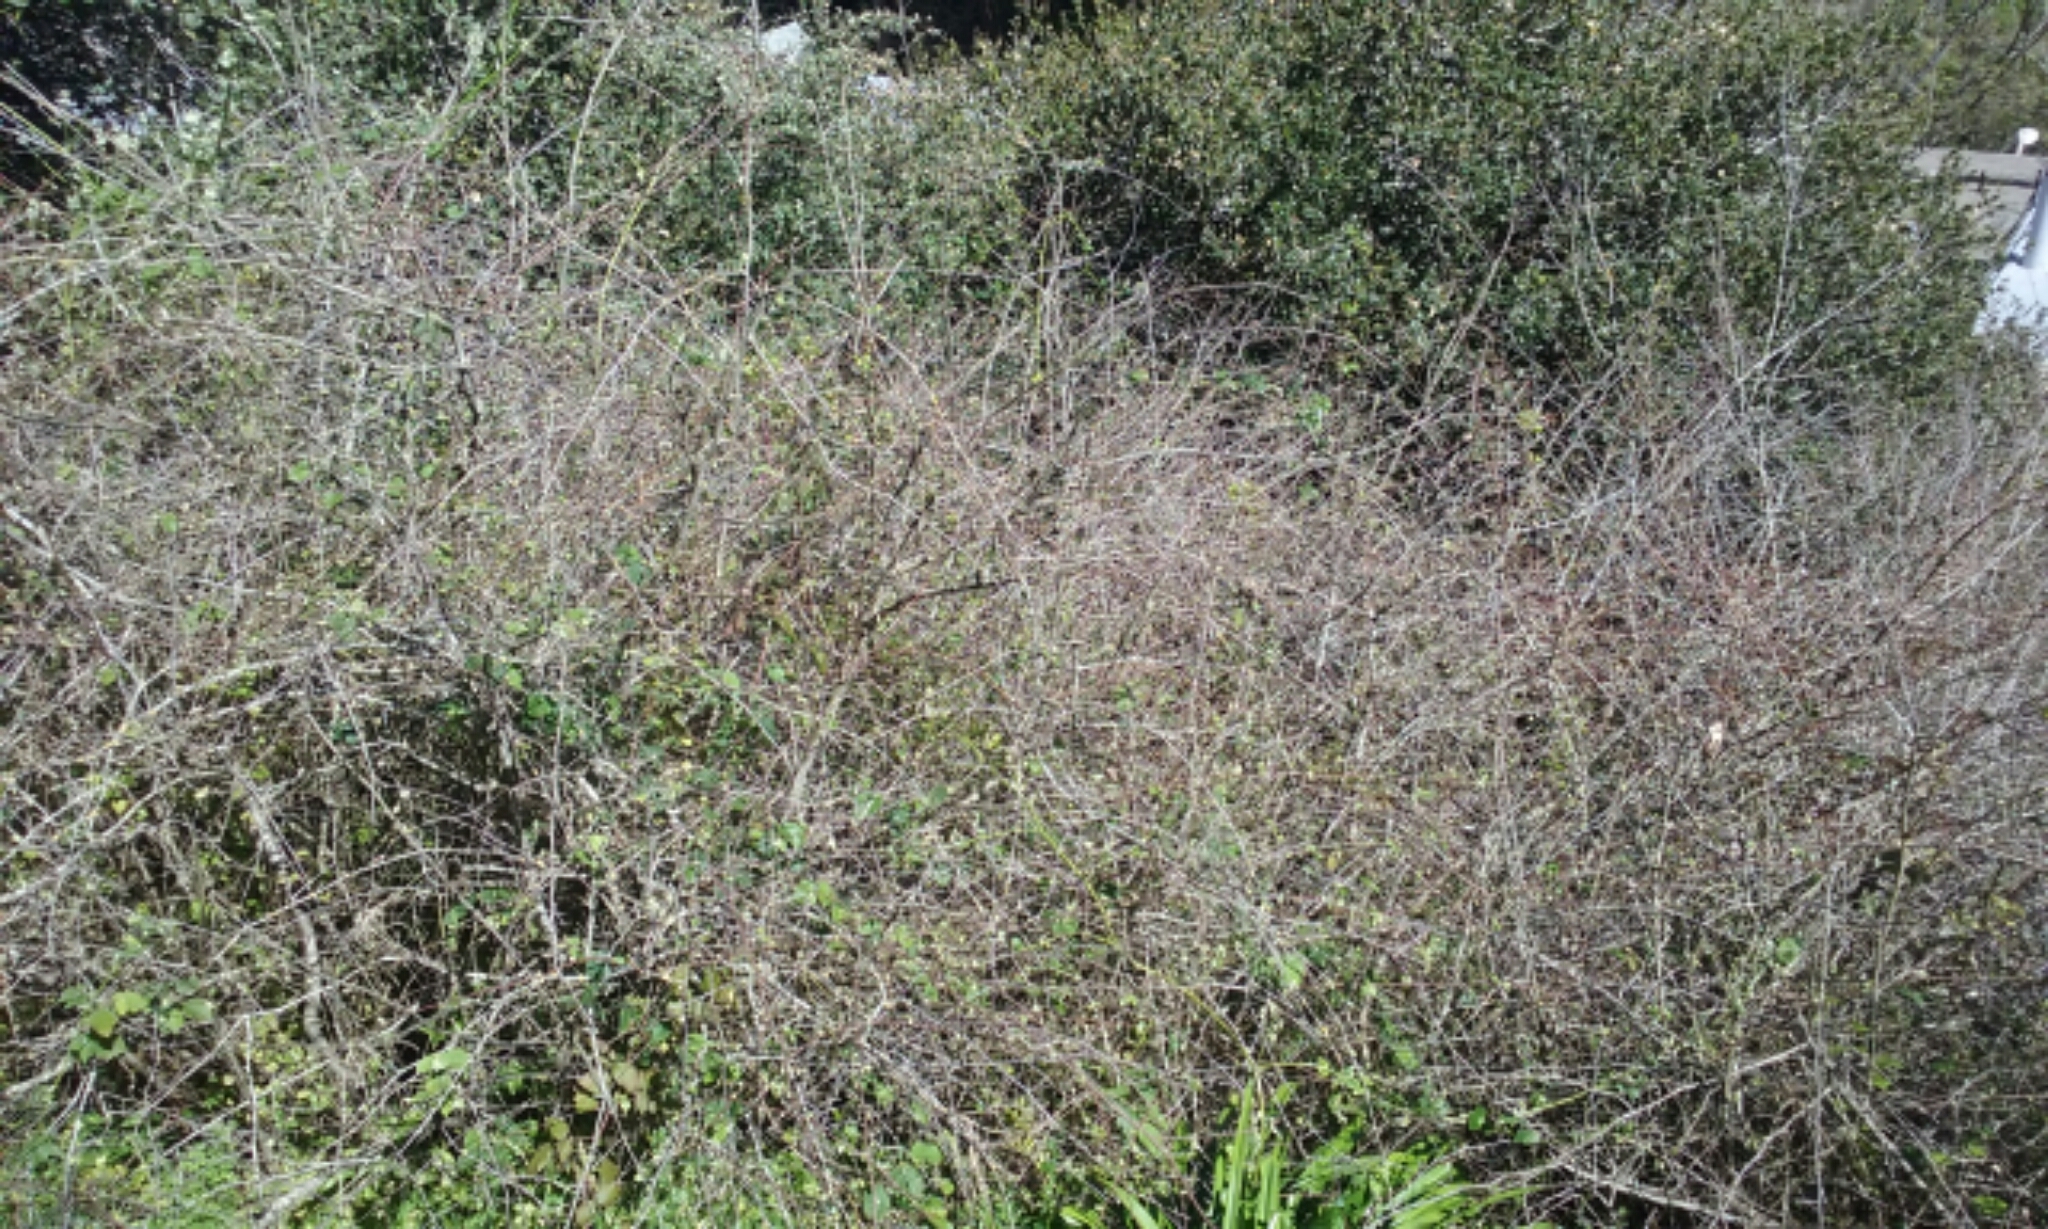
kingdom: Plantae
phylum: Tracheophyta
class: Magnoliopsida
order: Fagales
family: Betulaceae
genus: Corylus
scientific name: Corylus cornuta
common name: Beaked hazel
